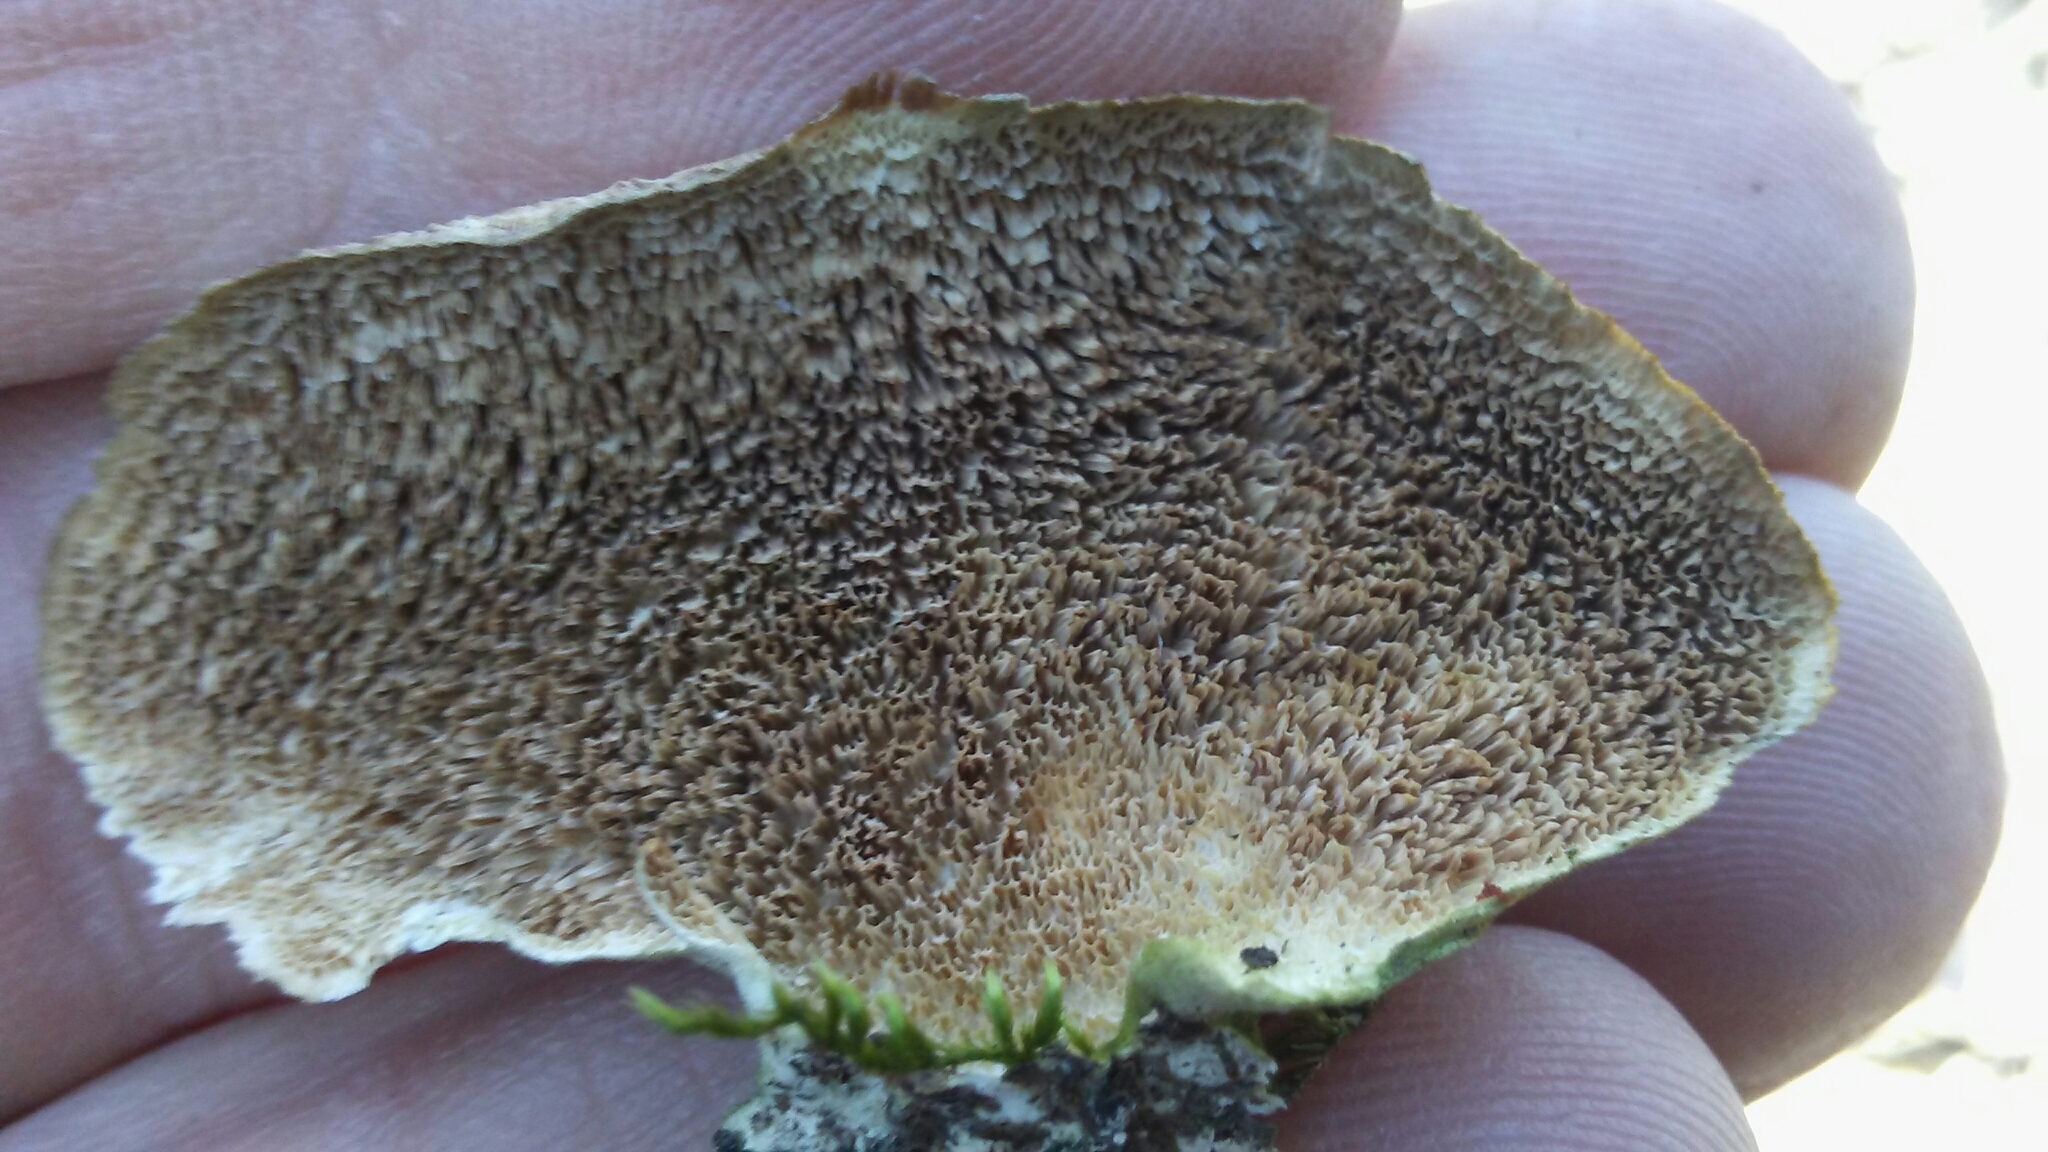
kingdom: Fungi
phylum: Basidiomycota
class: Agaricomycetes
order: Hymenochaetales
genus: Trichaptum
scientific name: Trichaptum biforme
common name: Violet-toothed polypore
